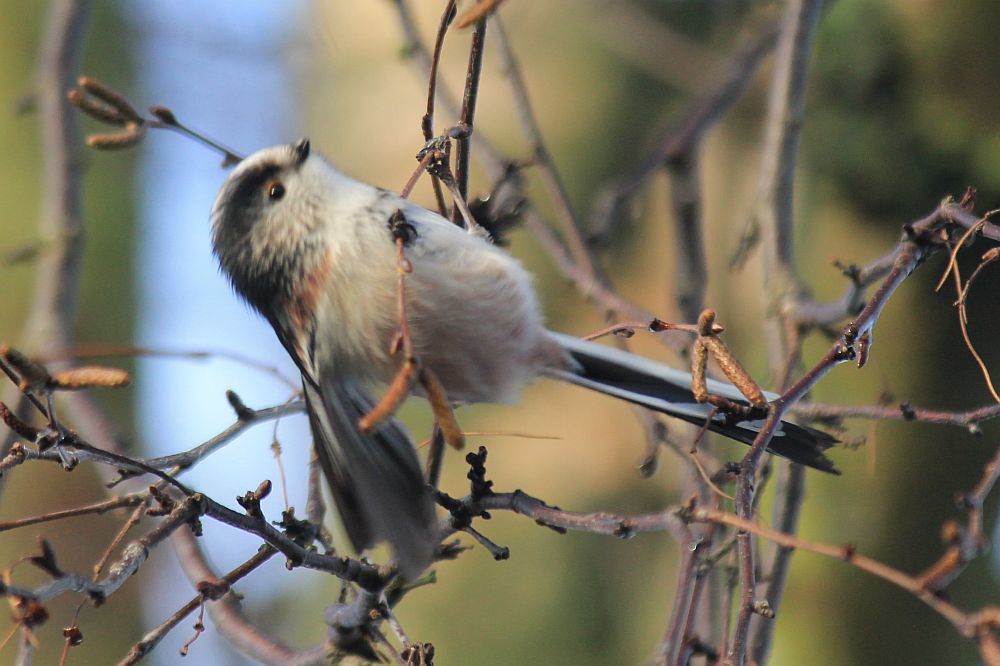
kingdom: Animalia
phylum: Chordata
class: Aves
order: Passeriformes
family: Aegithalidae
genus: Aegithalos
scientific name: Aegithalos caudatus
